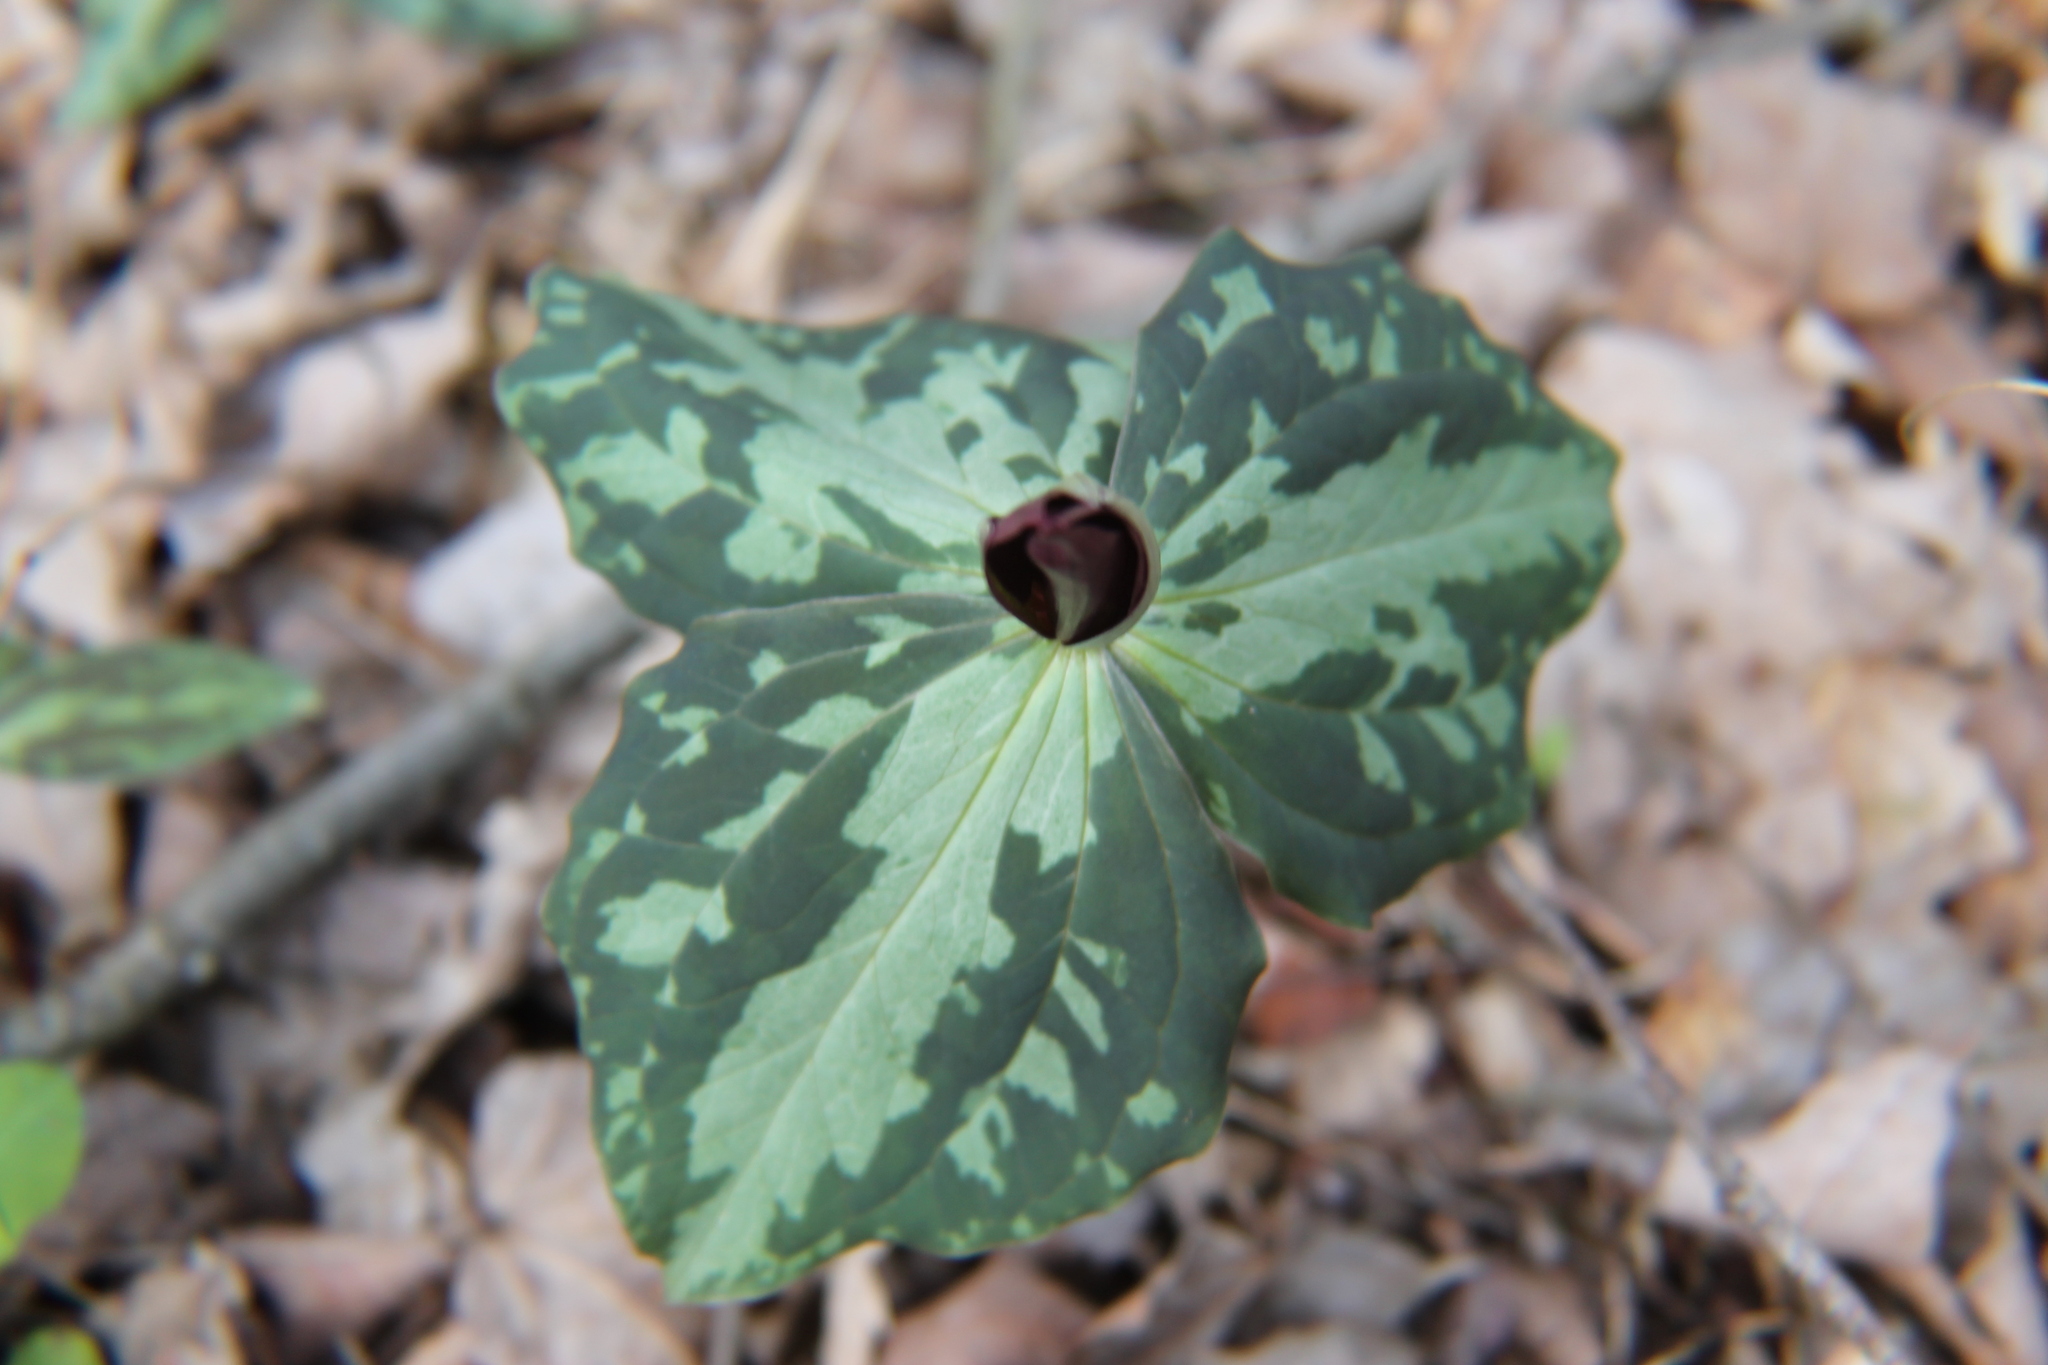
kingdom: Plantae
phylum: Tracheophyta
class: Liliopsida
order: Liliales
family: Melanthiaceae
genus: Trillium
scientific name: Trillium cuneatum
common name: Cuneate trillium
